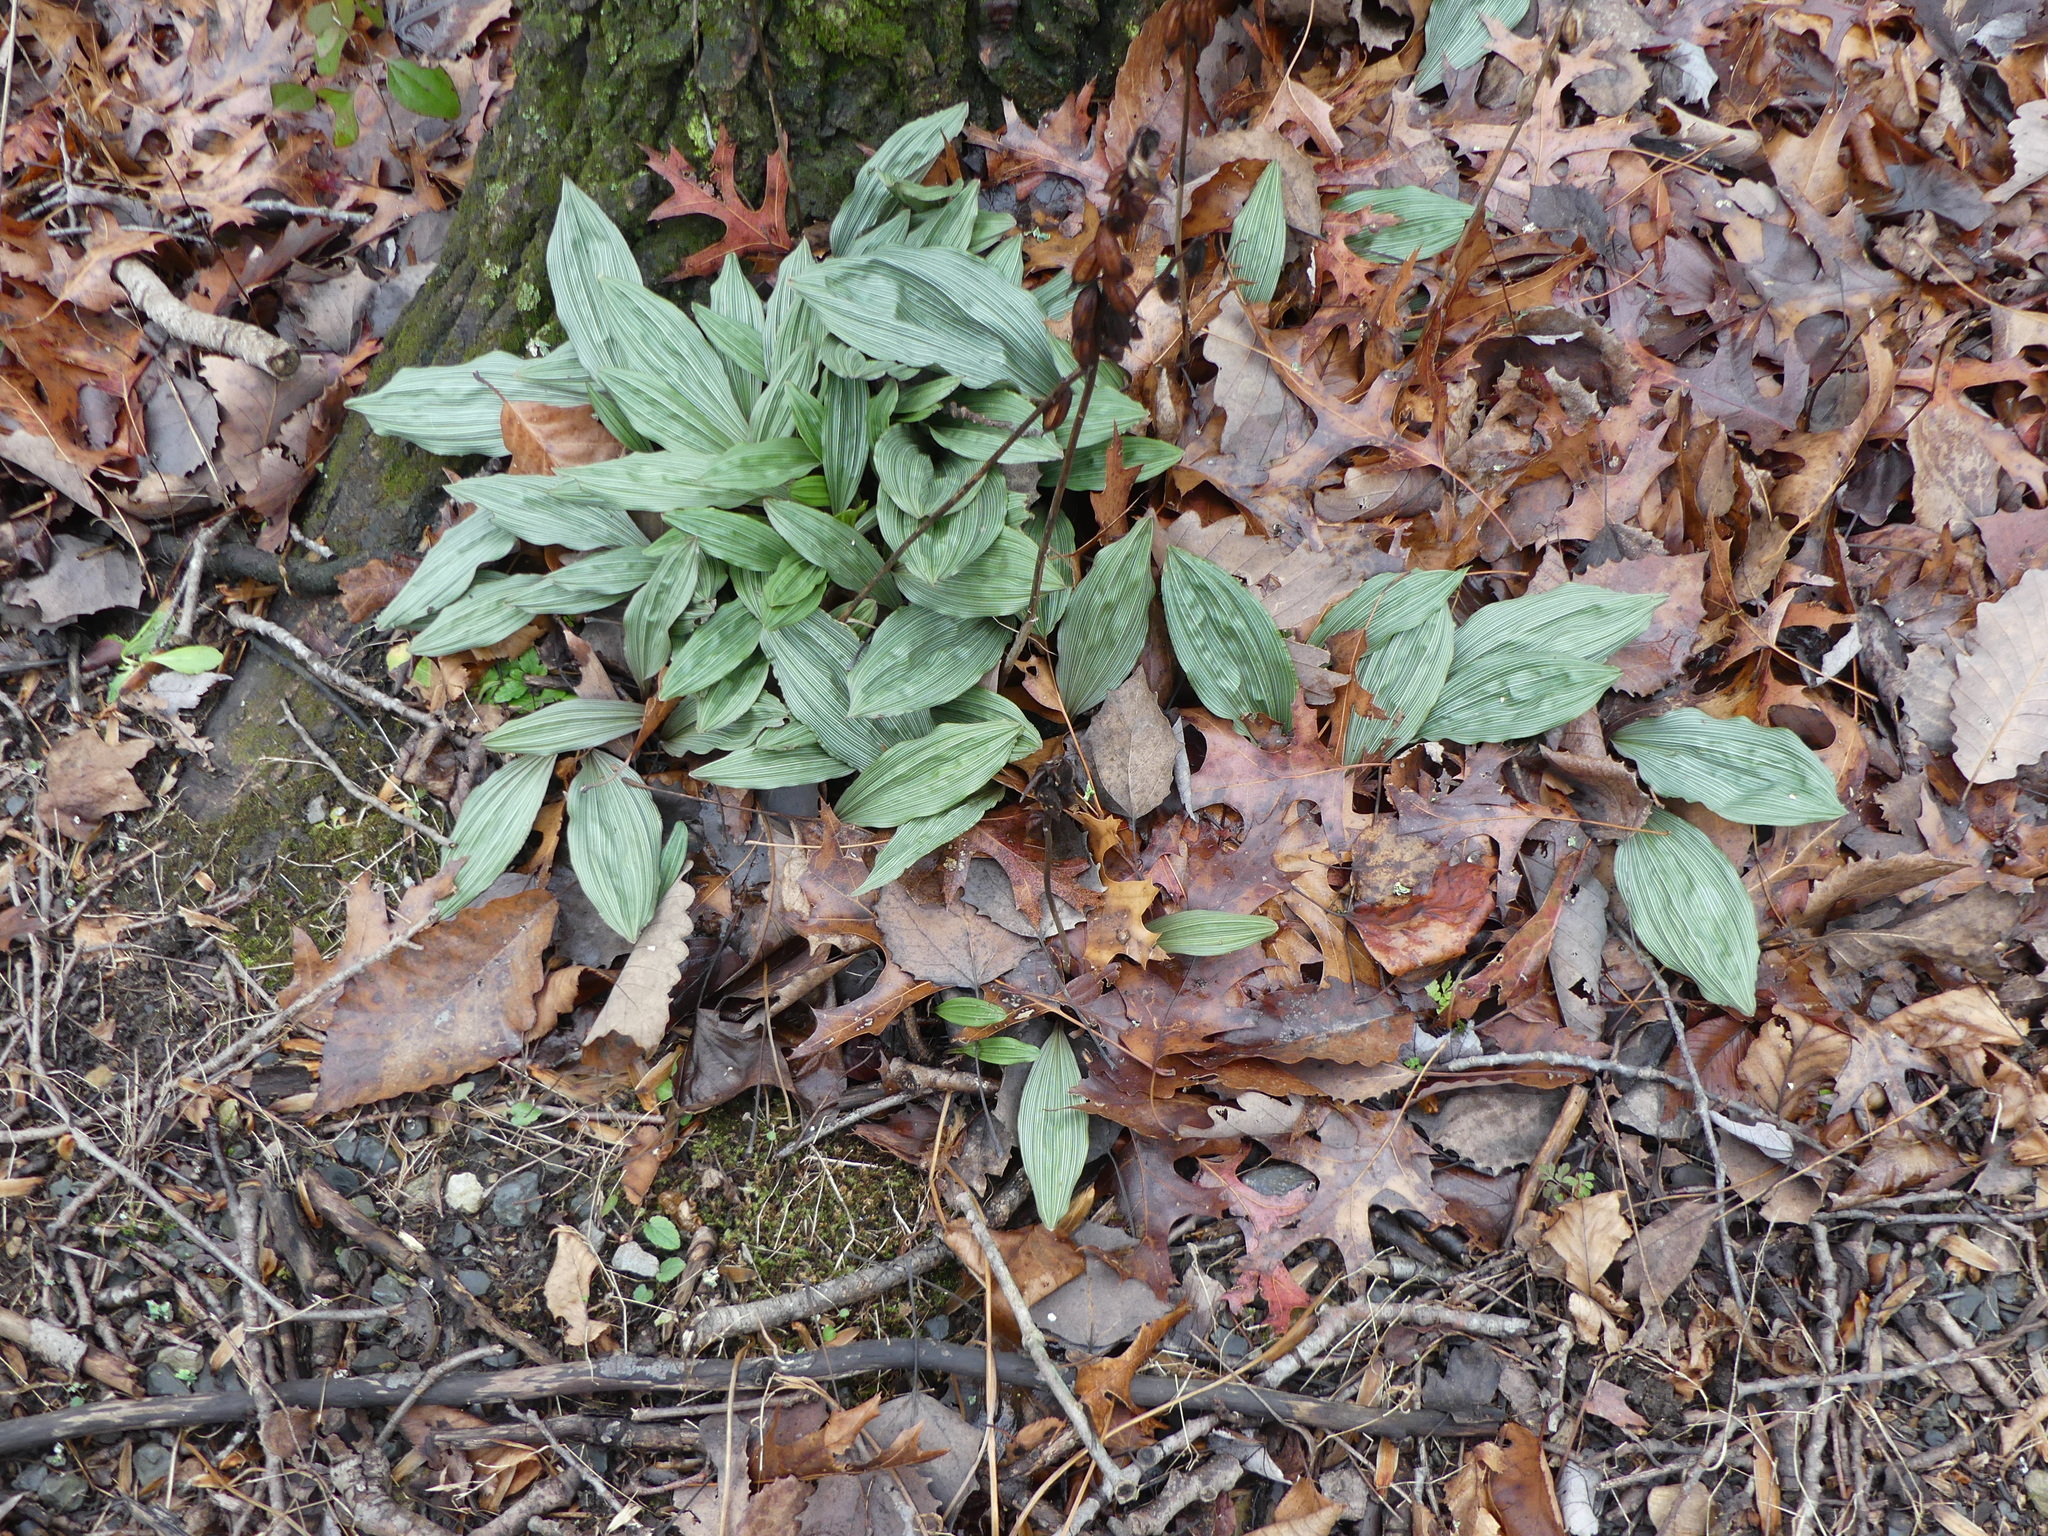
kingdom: Plantae
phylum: Tracheophyta
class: Liliopsida
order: Asparagales
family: Orchidaceae
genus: Aplectrum
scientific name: Aplectrum hyemale
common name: Adam-and-eve
